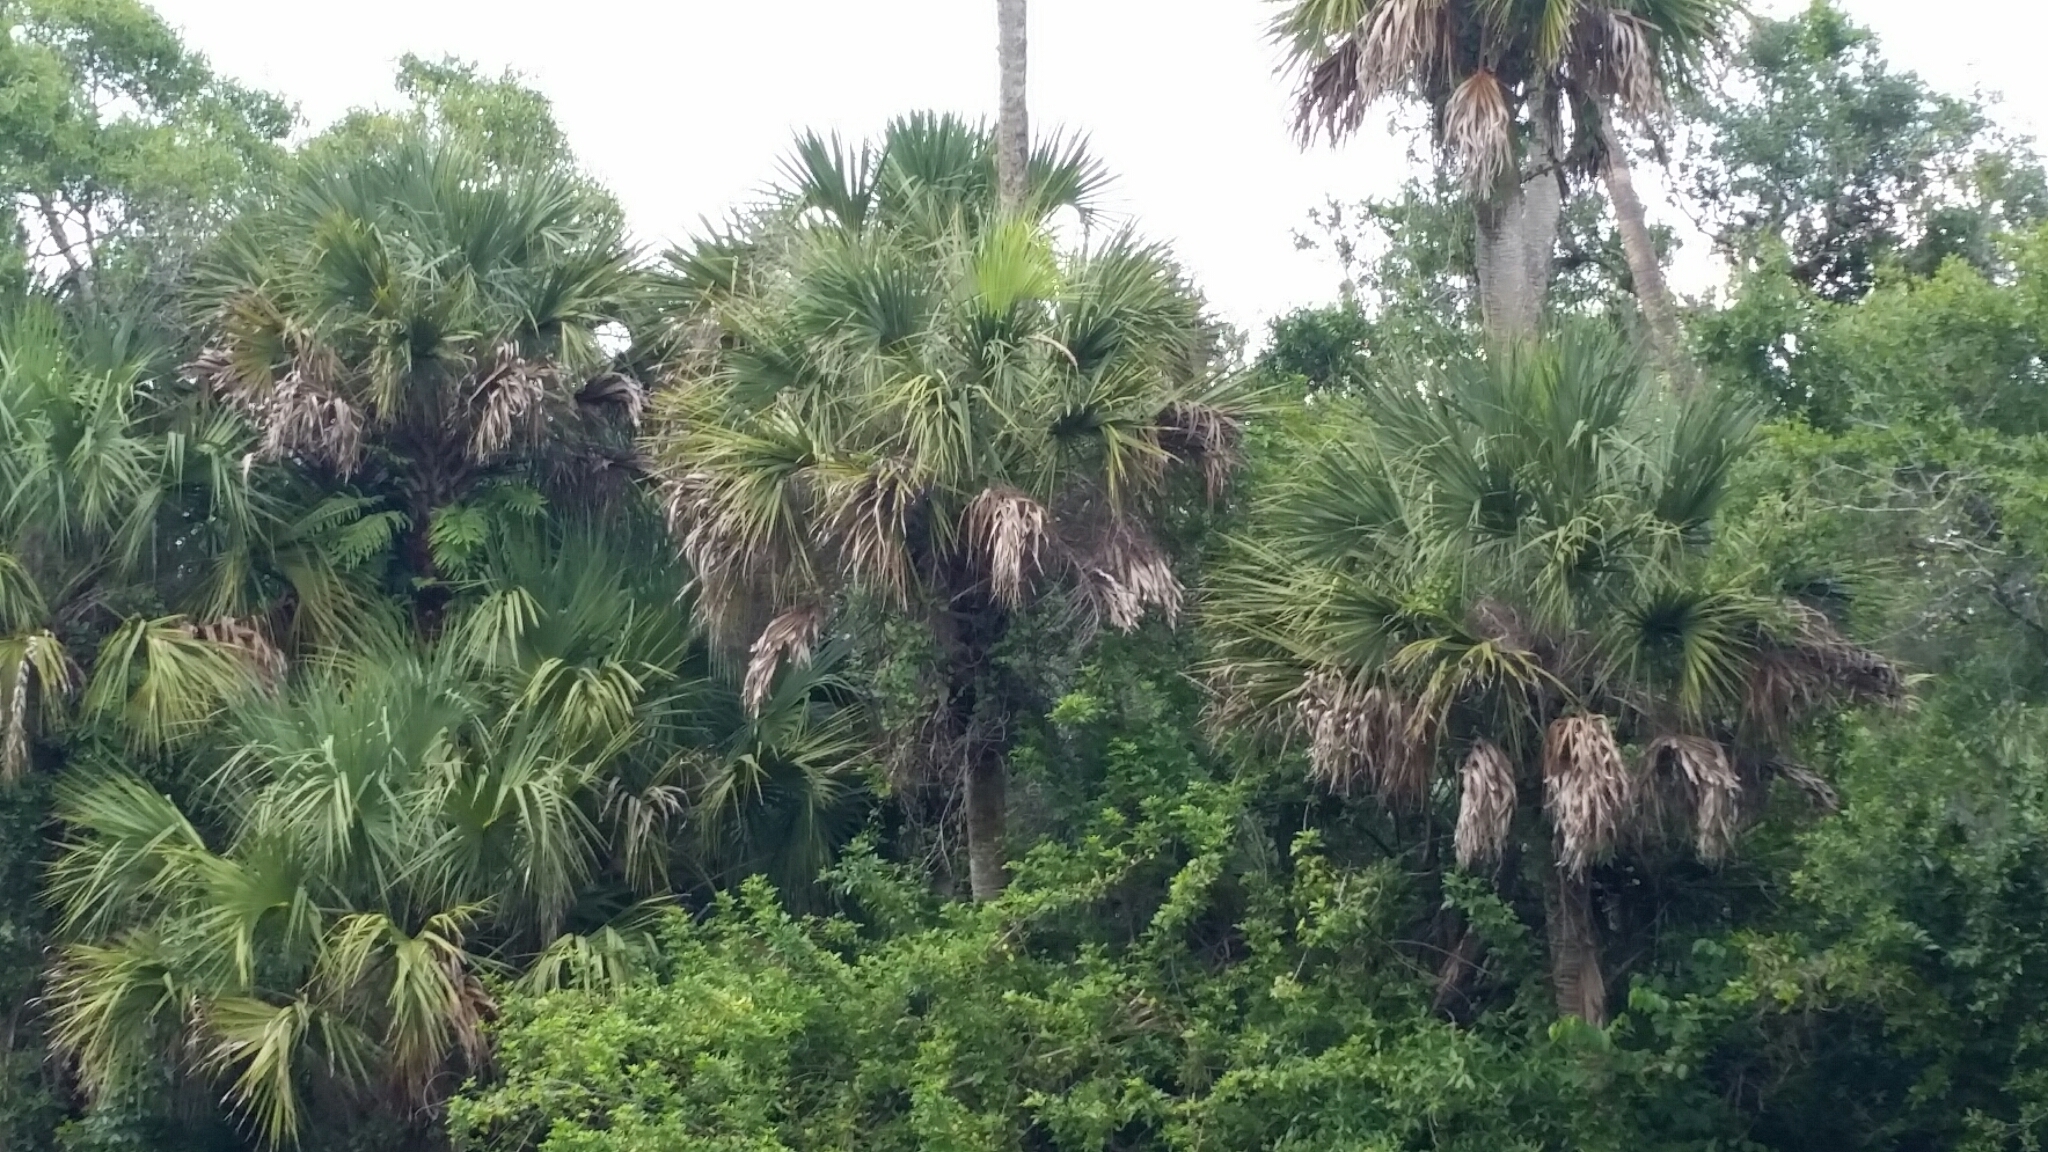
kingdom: Plantae
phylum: Tracheophyta
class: Liliopsida
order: Arecales
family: Arecaceae
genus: Sabal
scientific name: Sabal palmetto
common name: Blue palmetto
